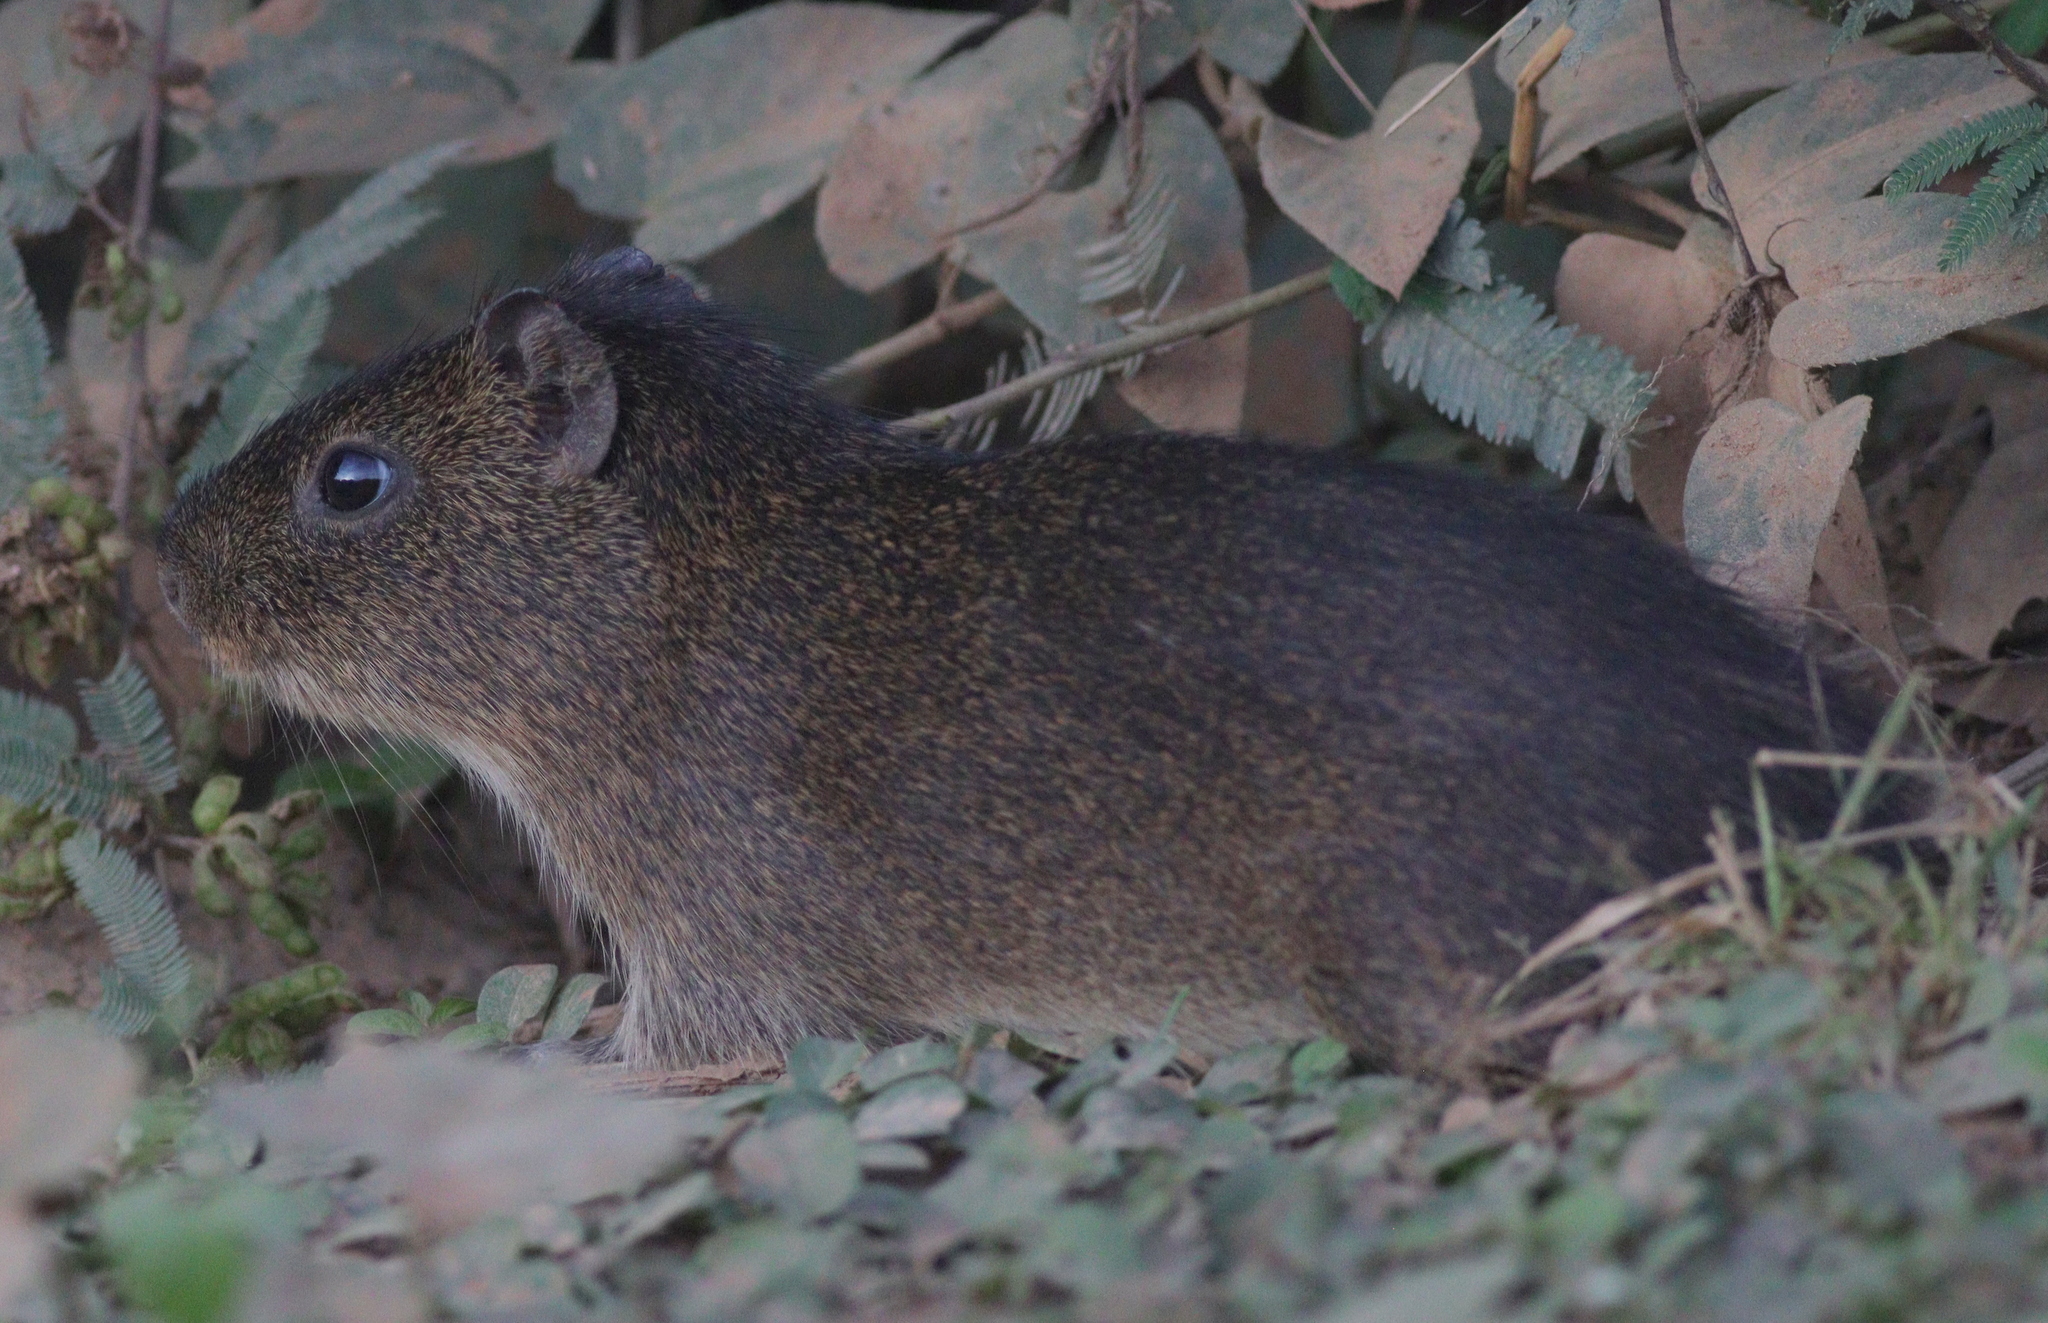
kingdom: Animalia
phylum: Chordata
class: Mammalia
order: Rodentia
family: Caviidae
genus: Cavia
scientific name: Cavia aperea
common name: Brazilian guinea pig
